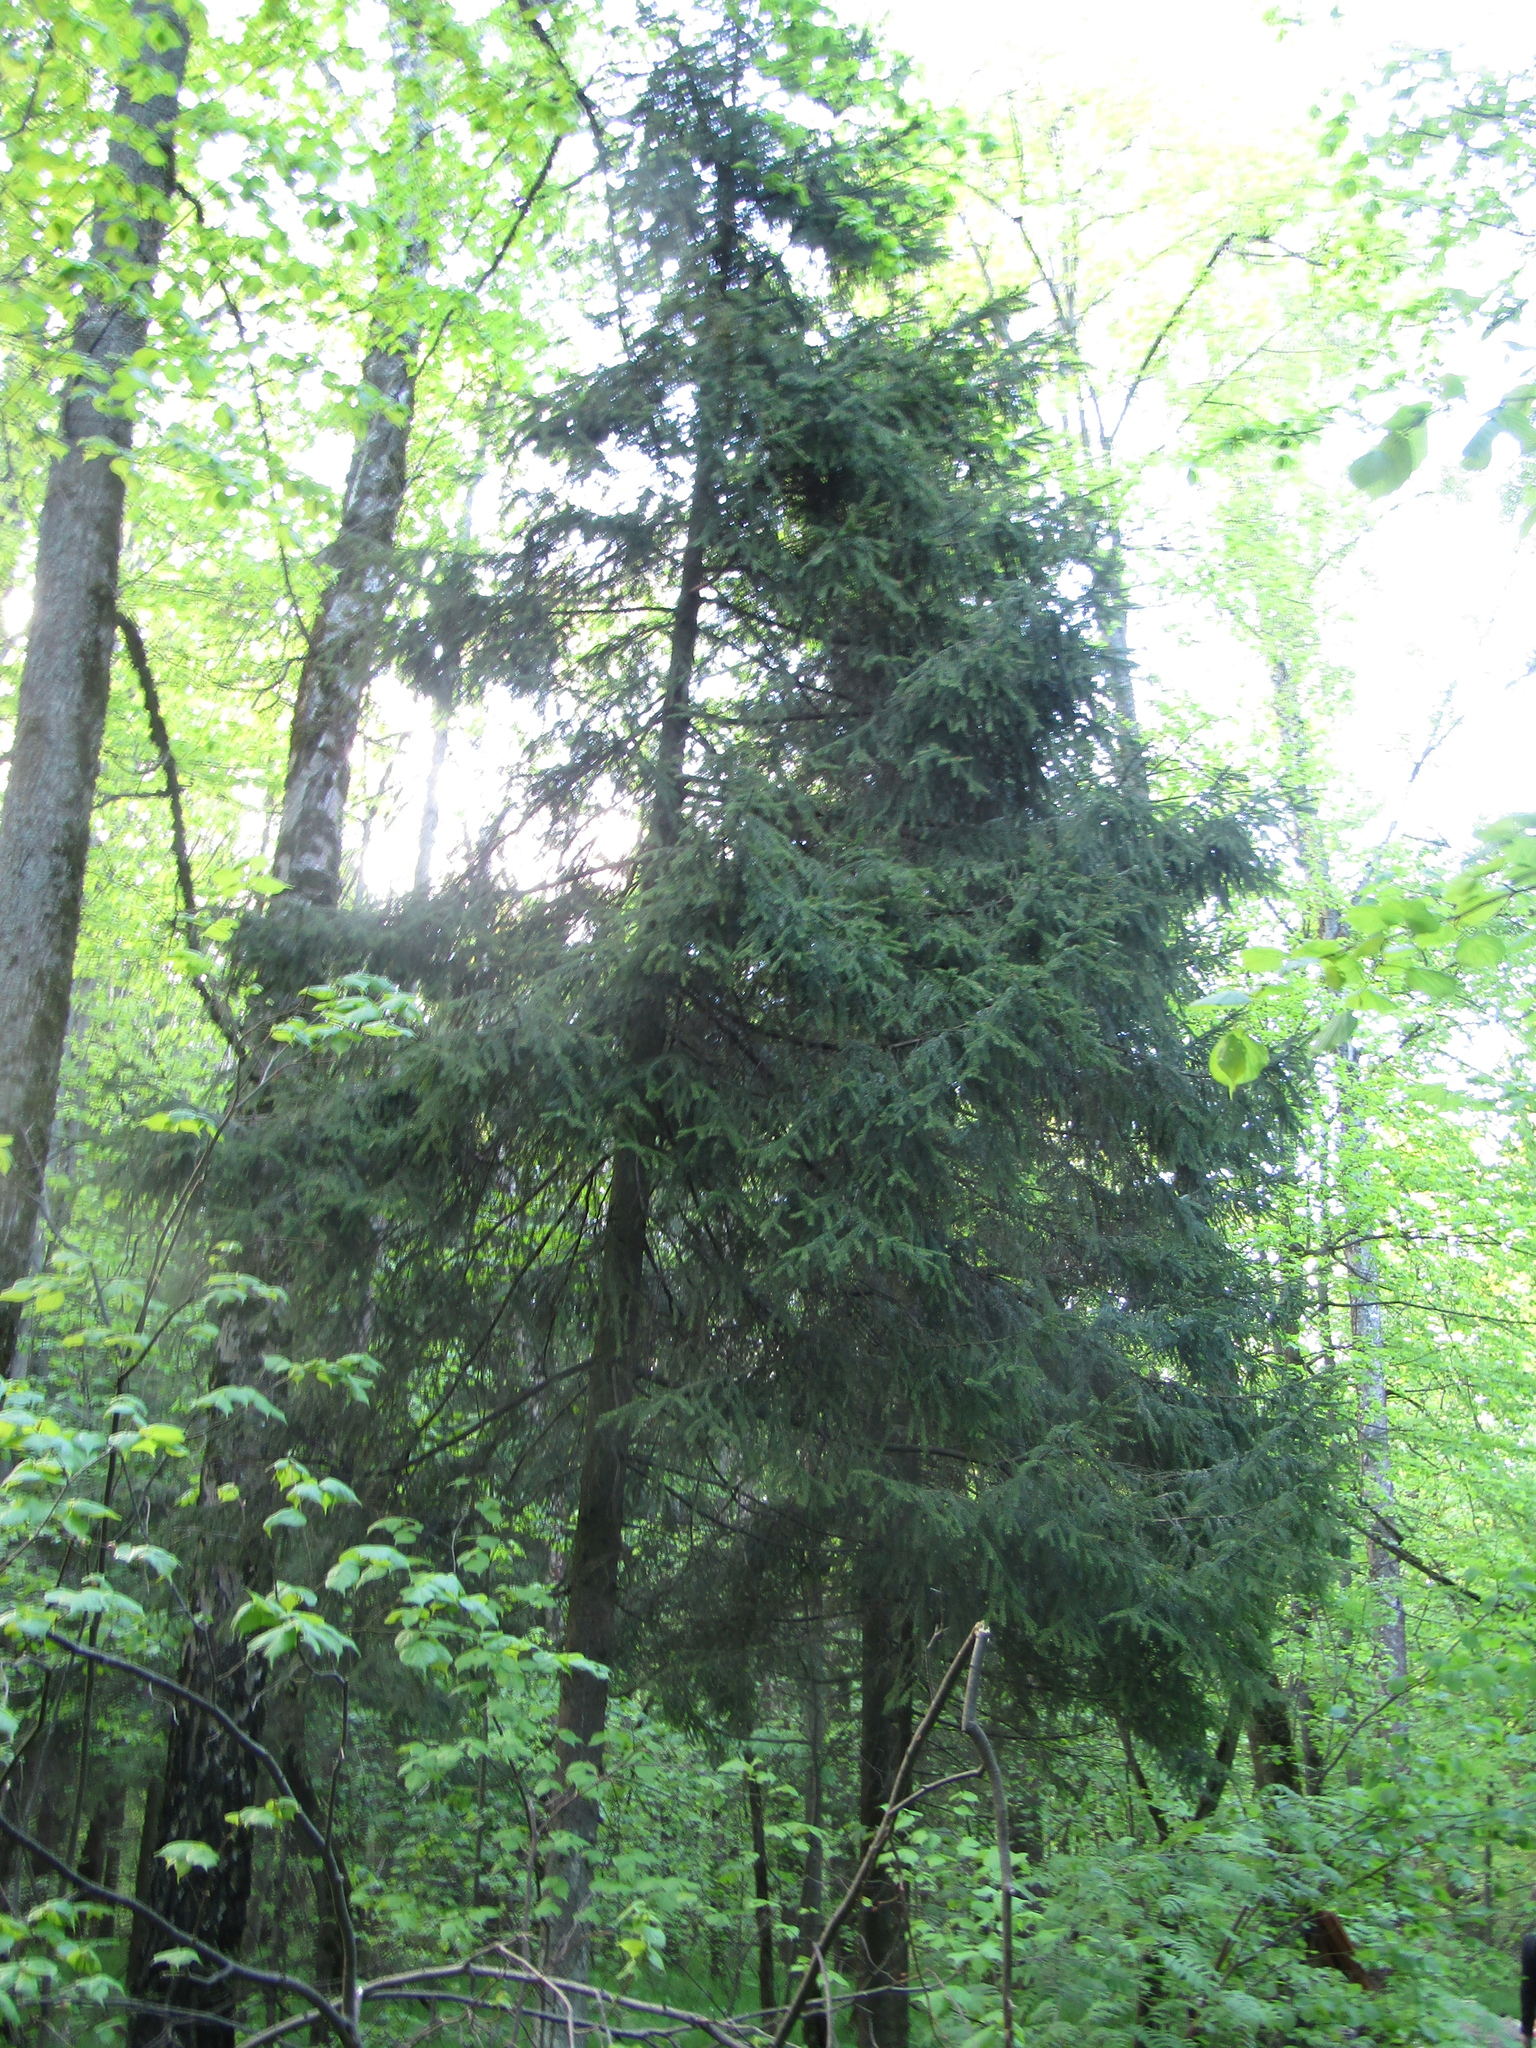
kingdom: Plantae
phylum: Tracheophyta
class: Pinopsida
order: Pinales
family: Pinaceae
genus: Picea
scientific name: Picea abies
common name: Norway spruce
